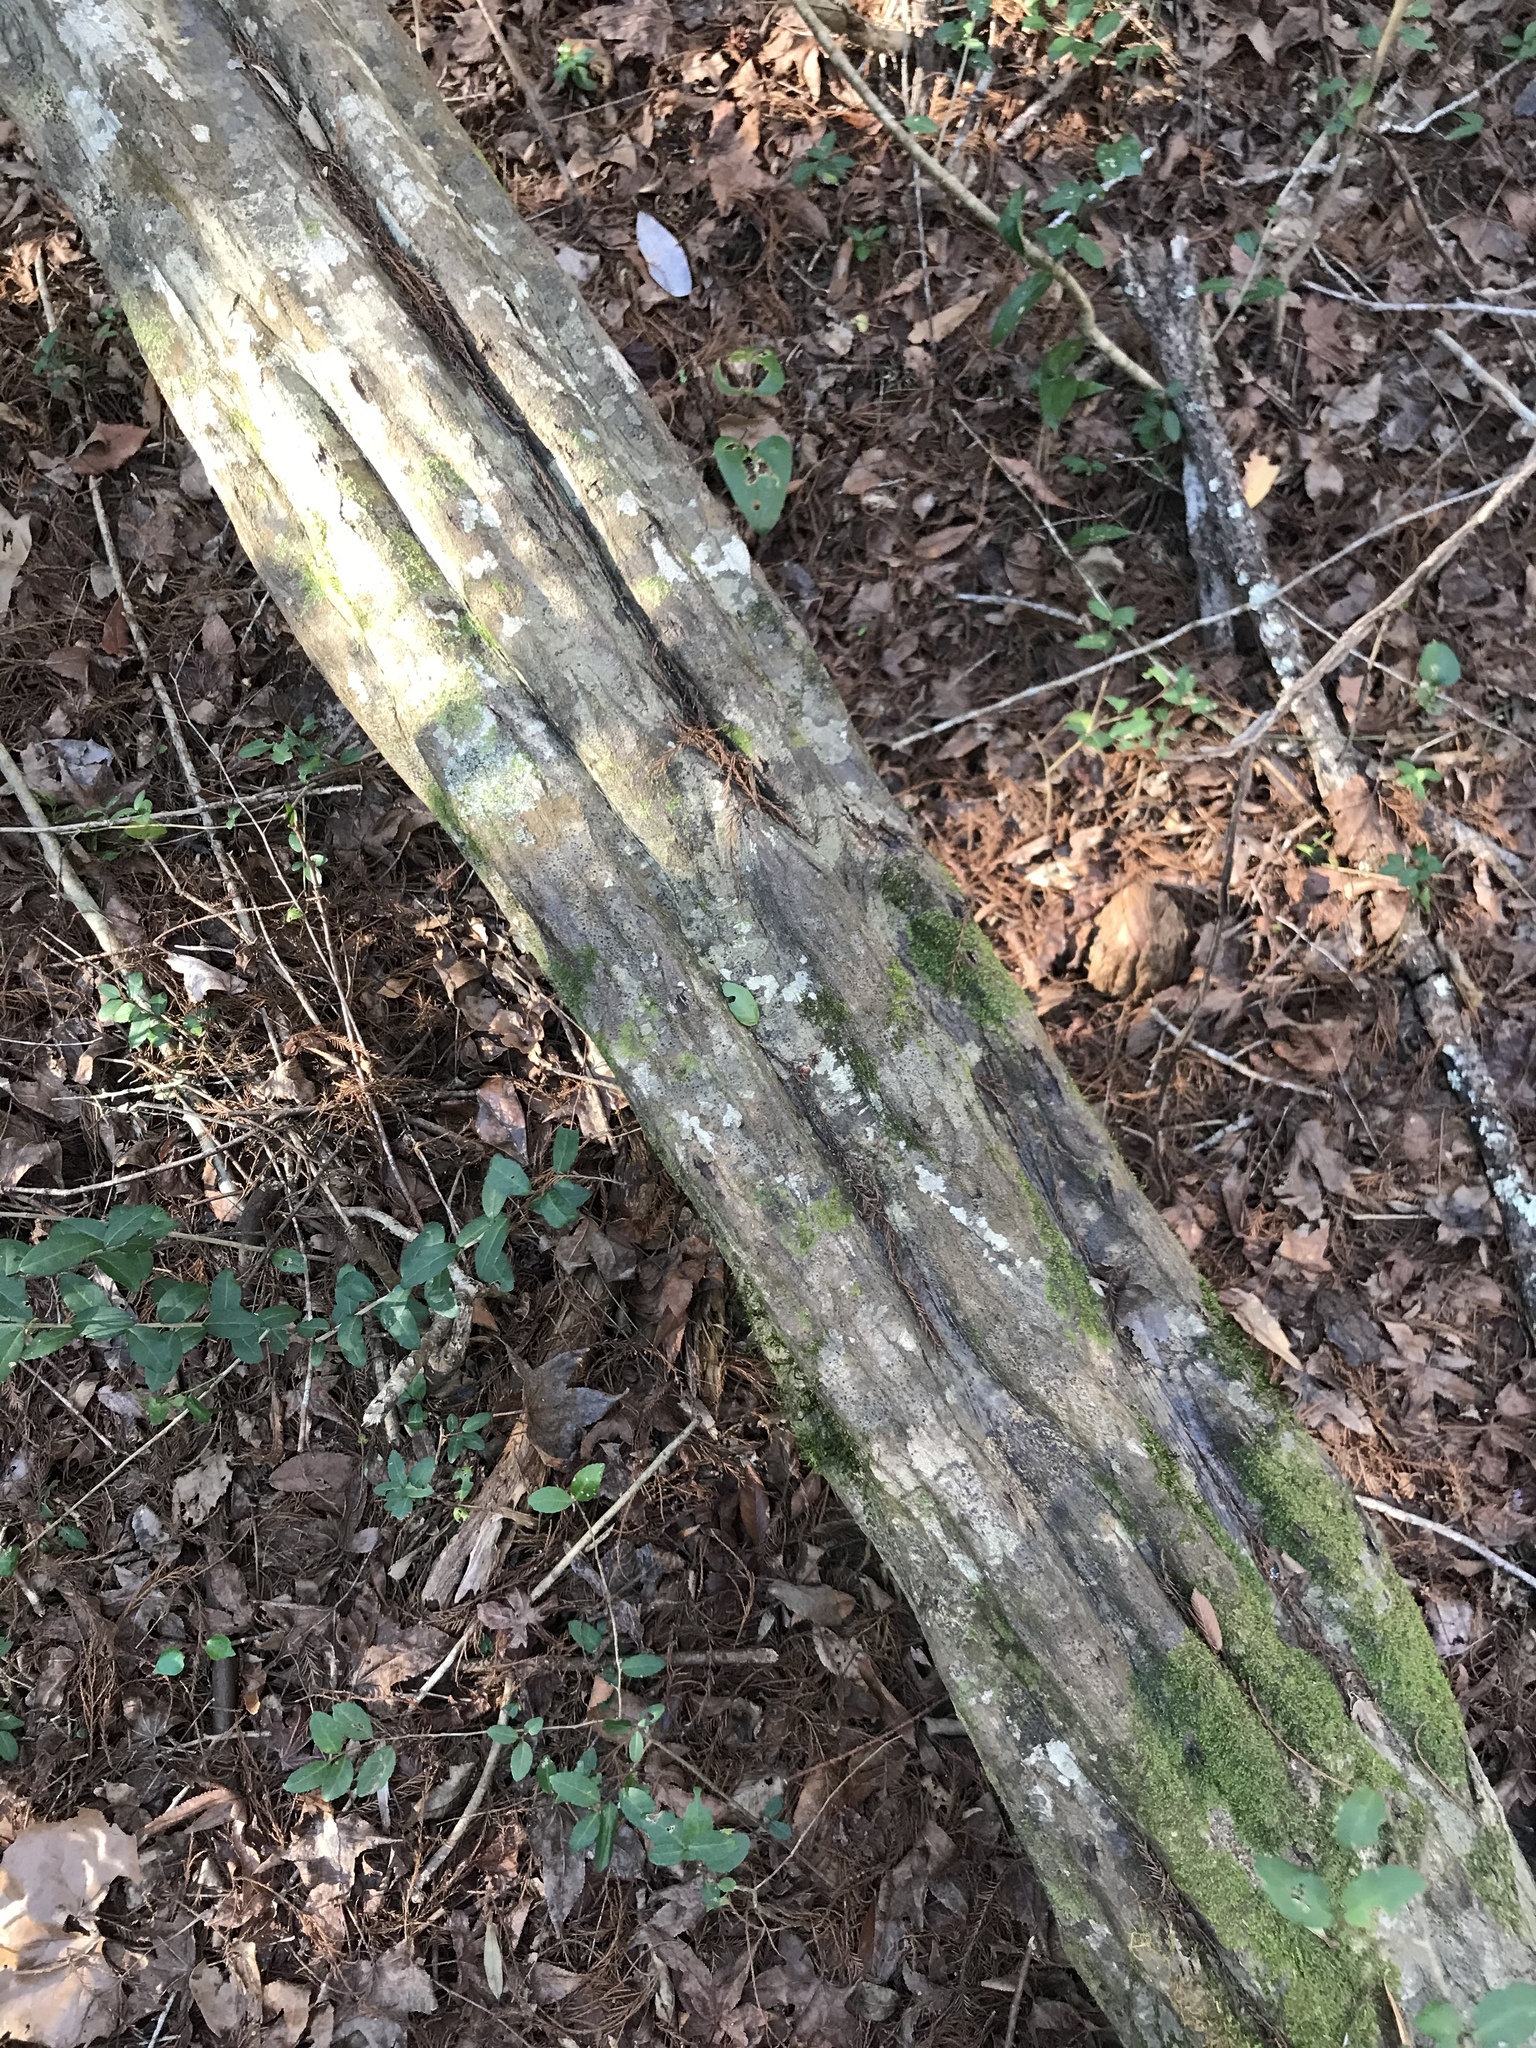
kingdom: Plantae
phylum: Tracheophyta
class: Magnoliopsida
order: Fagales
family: Betulaceae
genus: Carpinus
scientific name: Carpinus caroliniana
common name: American hornbeam
